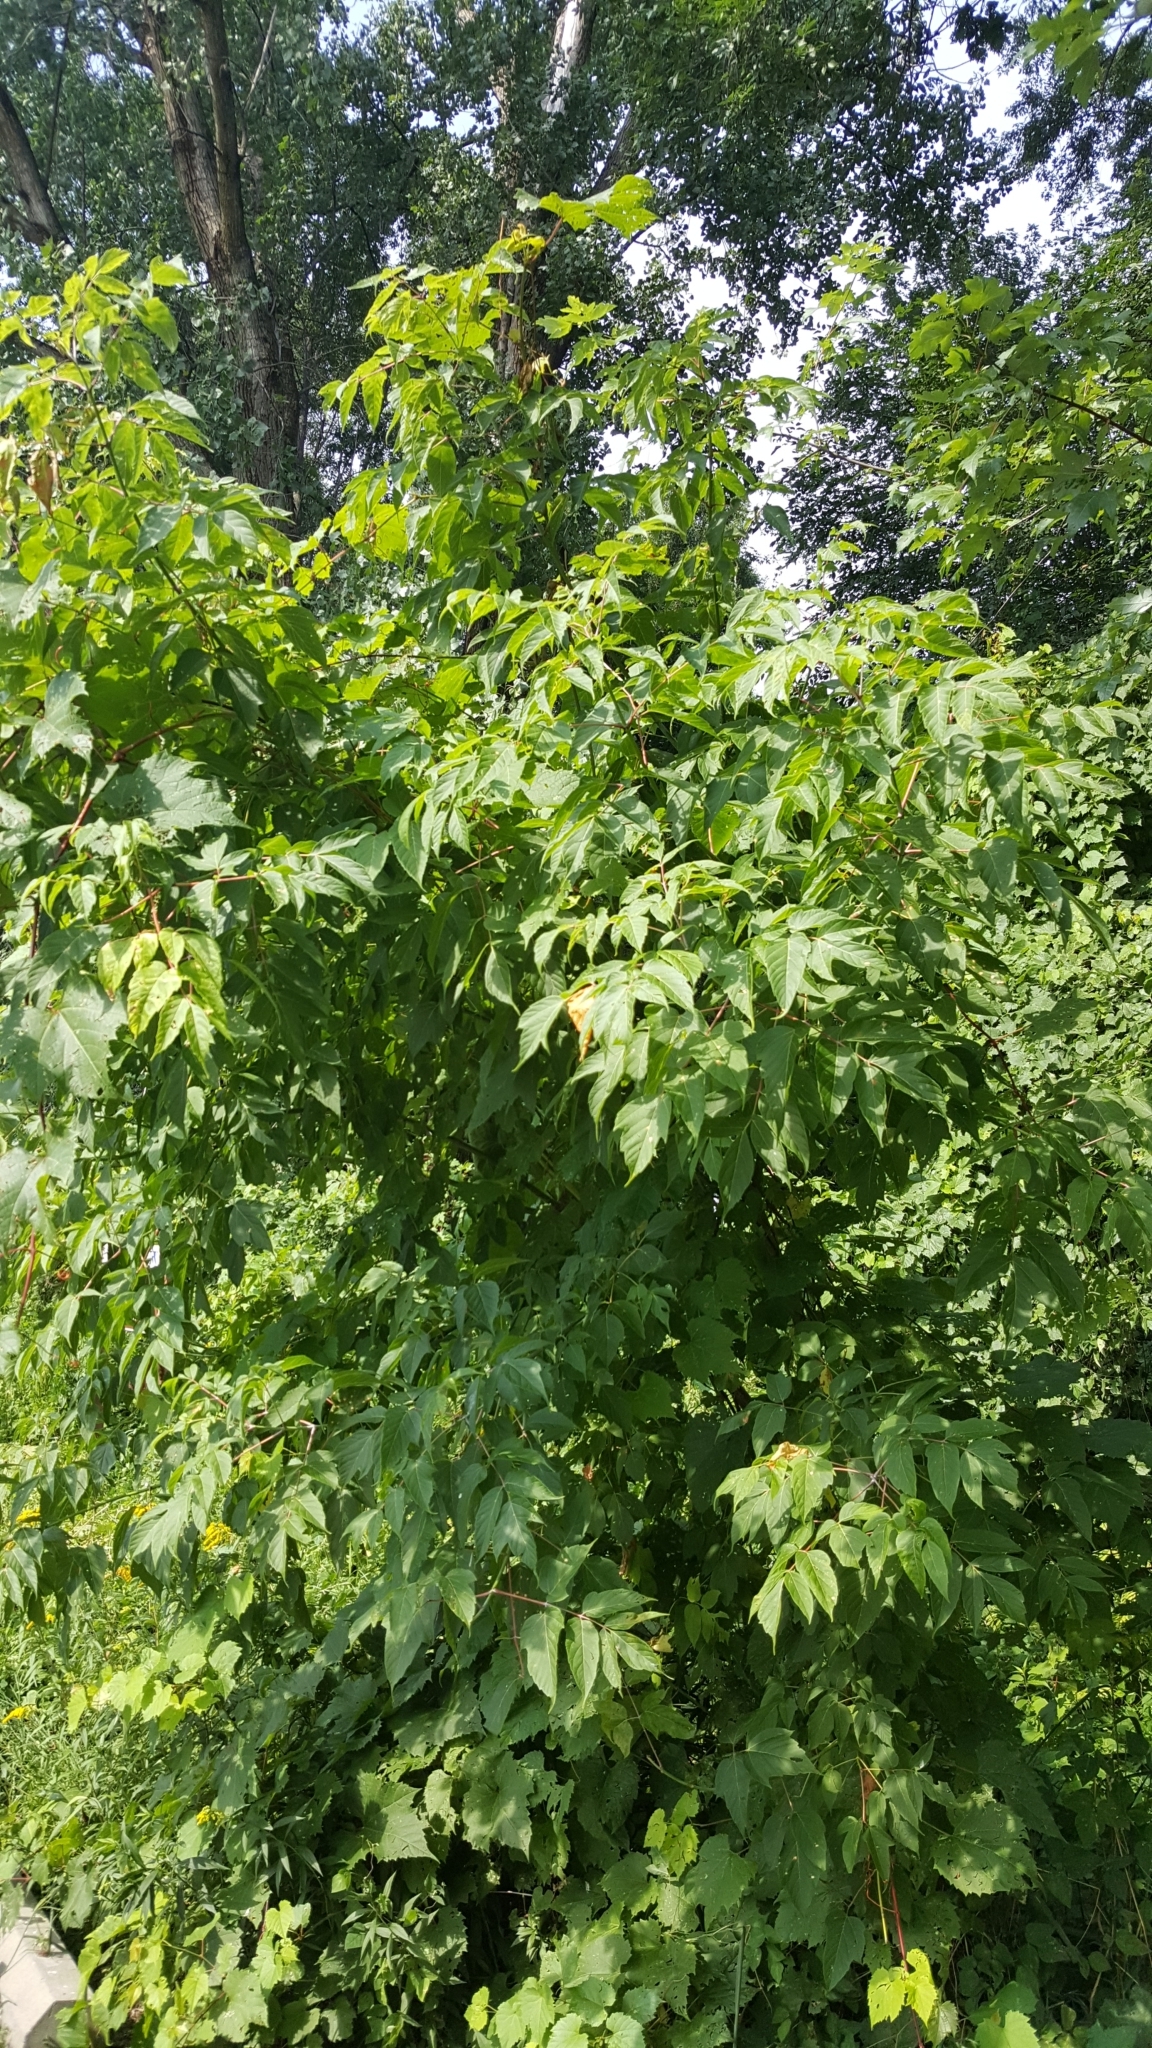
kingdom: Plantae
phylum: Tracheophyta
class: Magnoliopsida
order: Sapindales
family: Sapindaceae
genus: Acer
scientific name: Acer negundo
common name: Ashleaf maple
